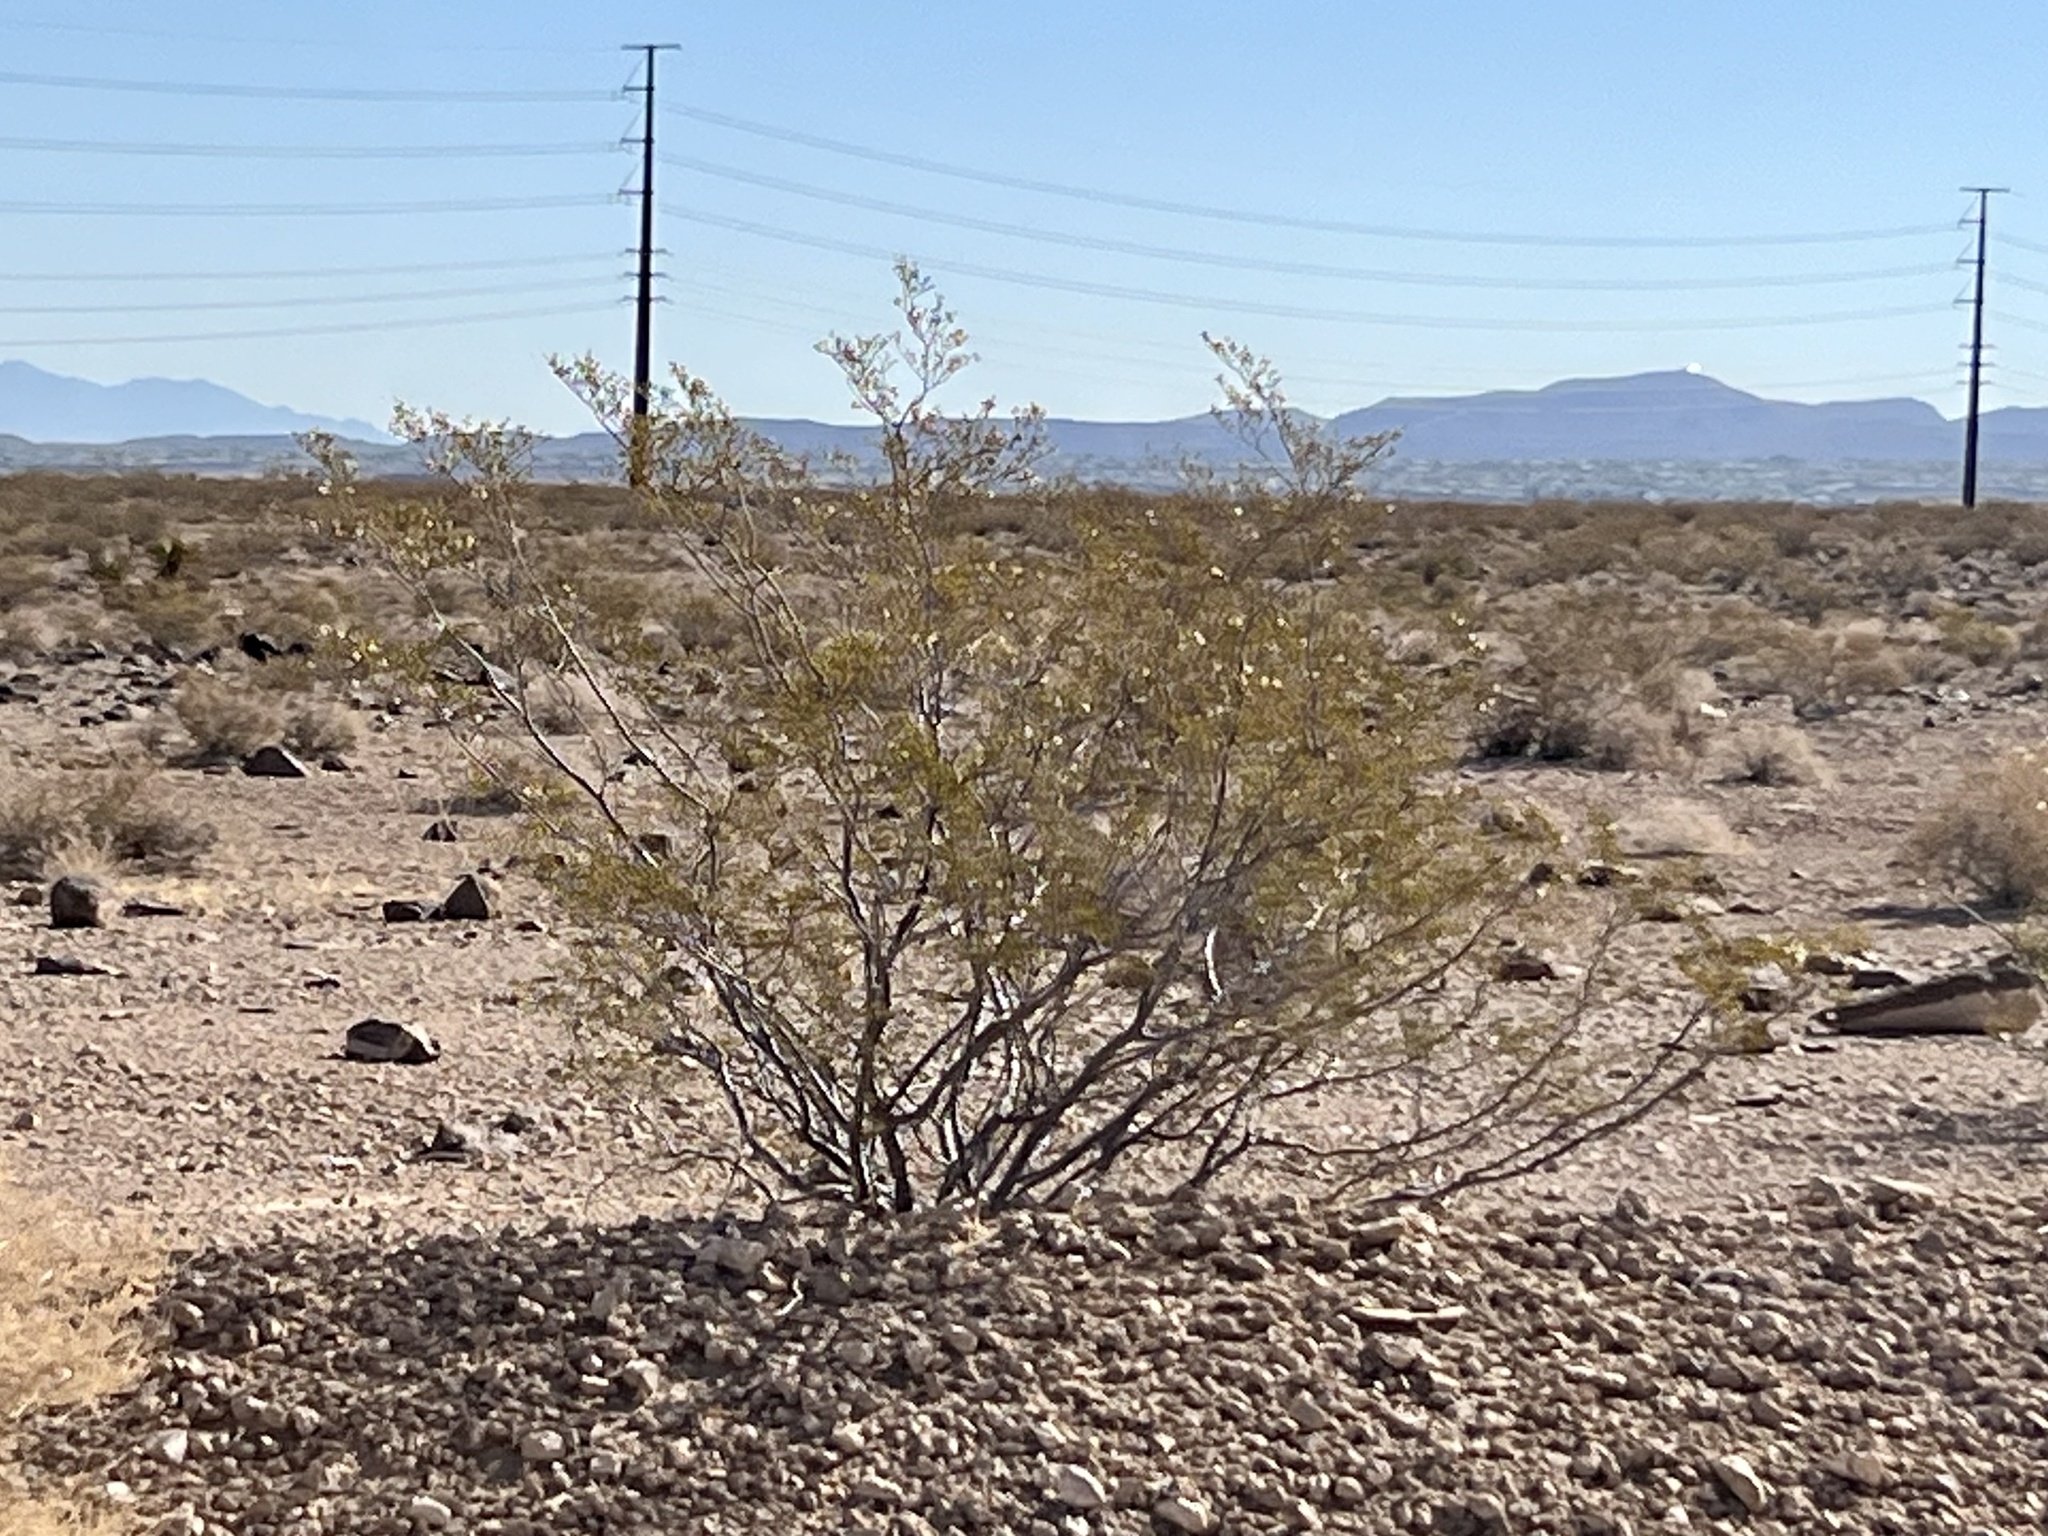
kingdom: Plantae
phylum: Tracheophyta
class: Magnoliopsida
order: Zygophyllales
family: Zygophyllaceae
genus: Larrea
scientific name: Larrea tridentata
